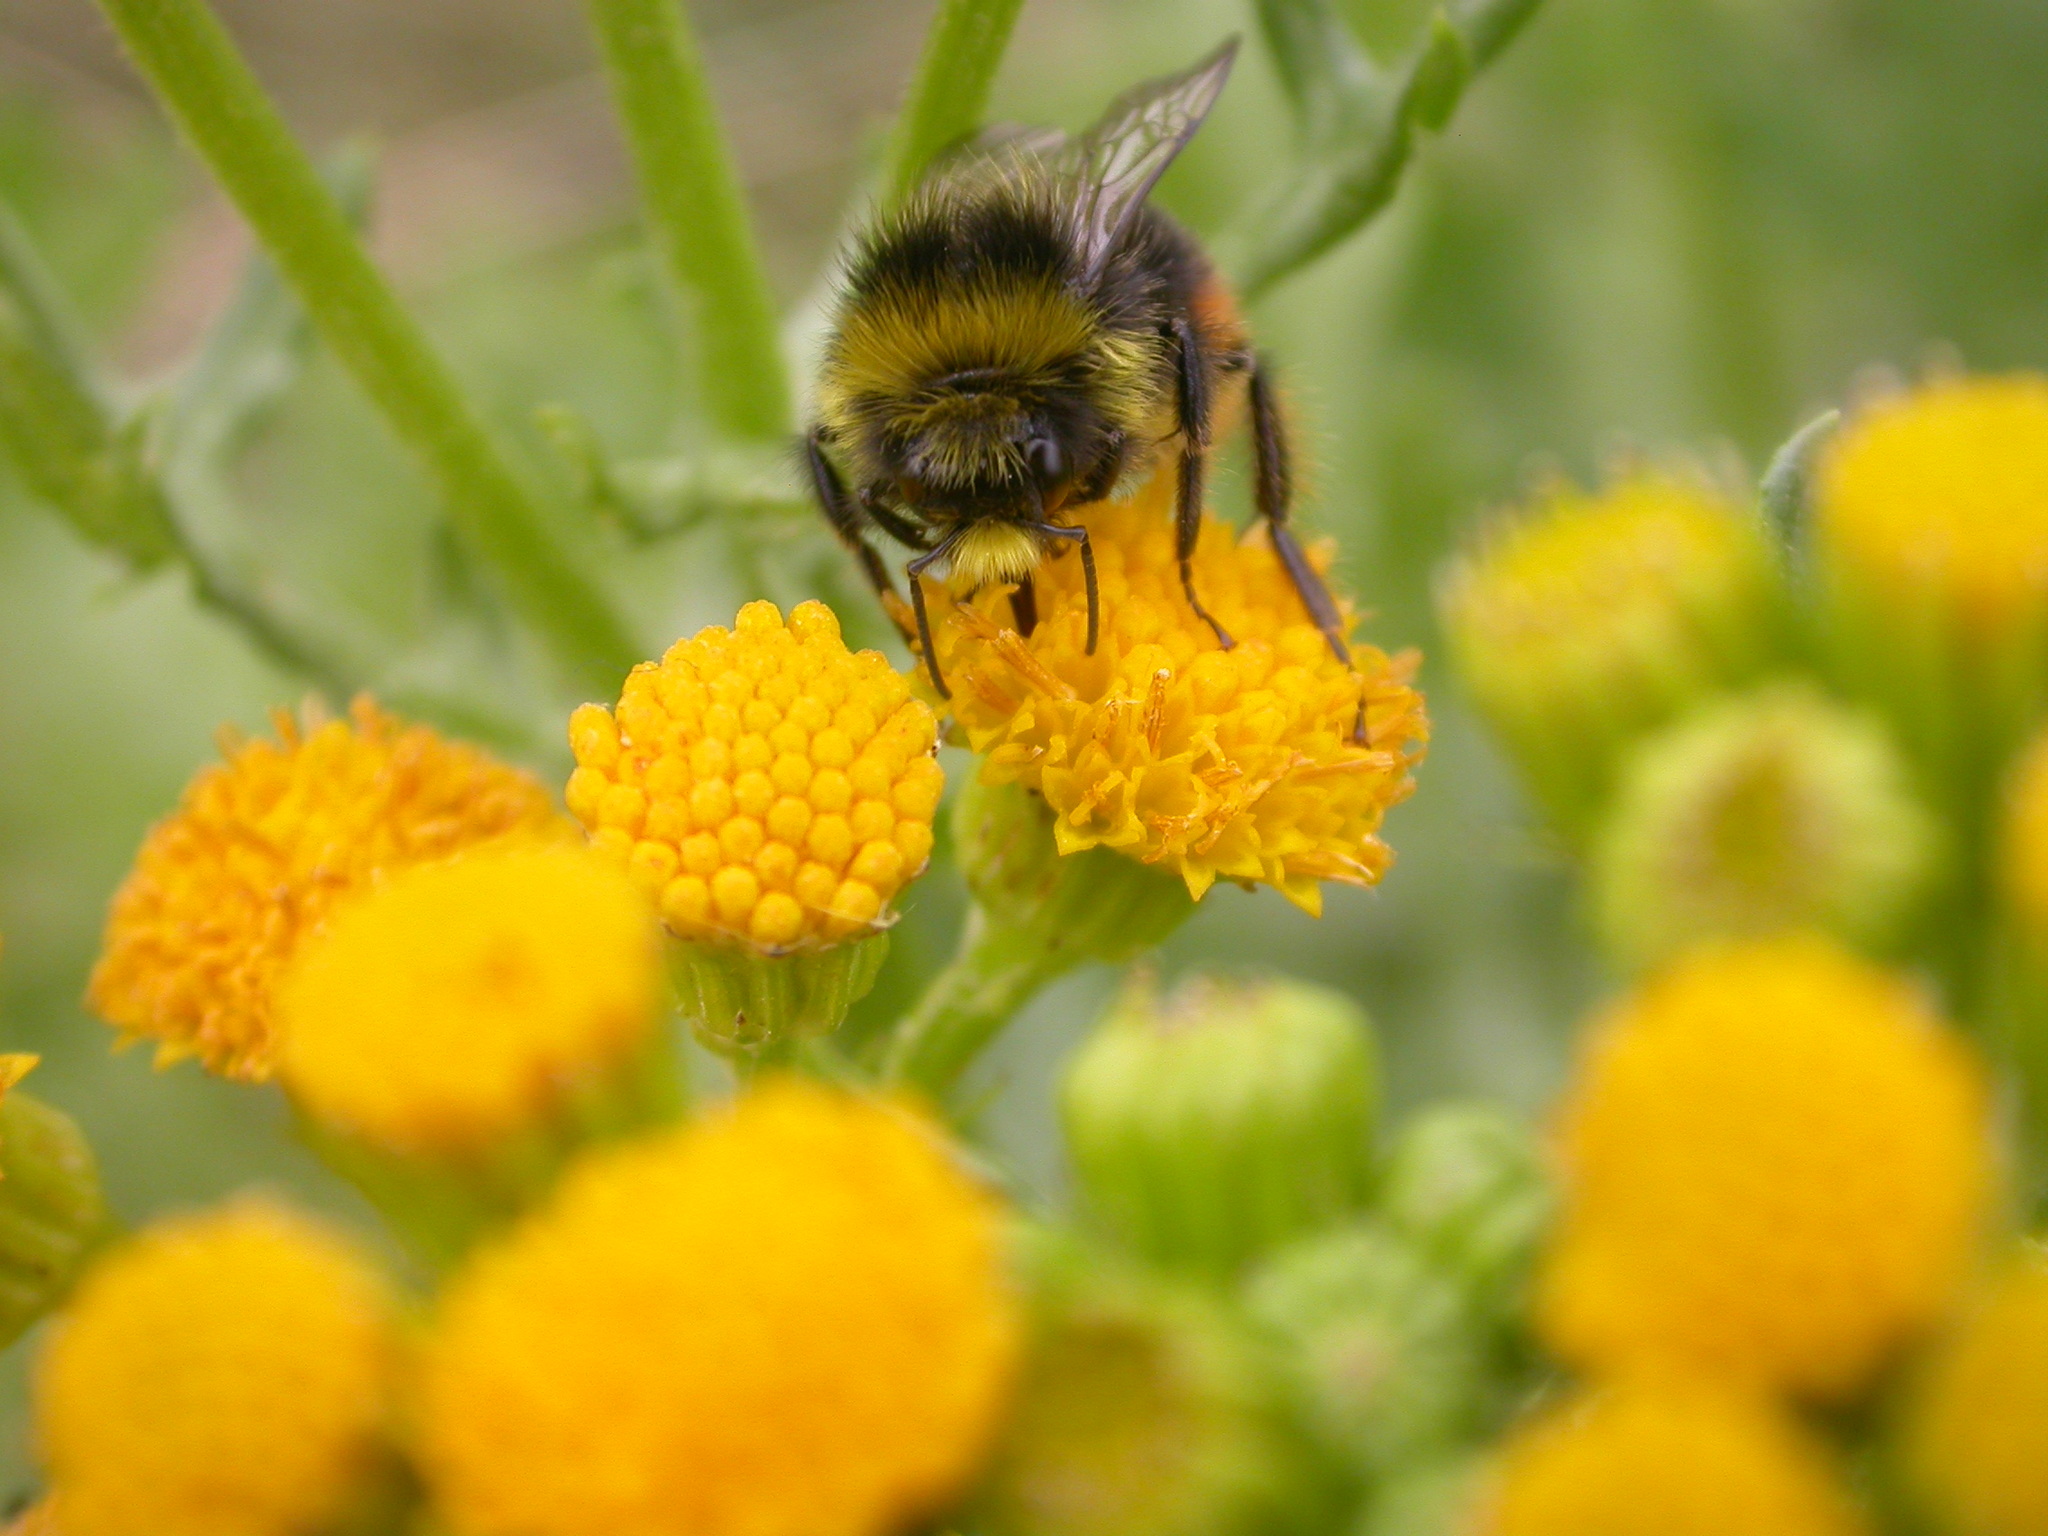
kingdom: Animalia
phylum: Arthropoda
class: Insecta
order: Hymenoptera
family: Apidae
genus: Bombus
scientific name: Bombus lapidarius
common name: Large red-tailed humble-bee
